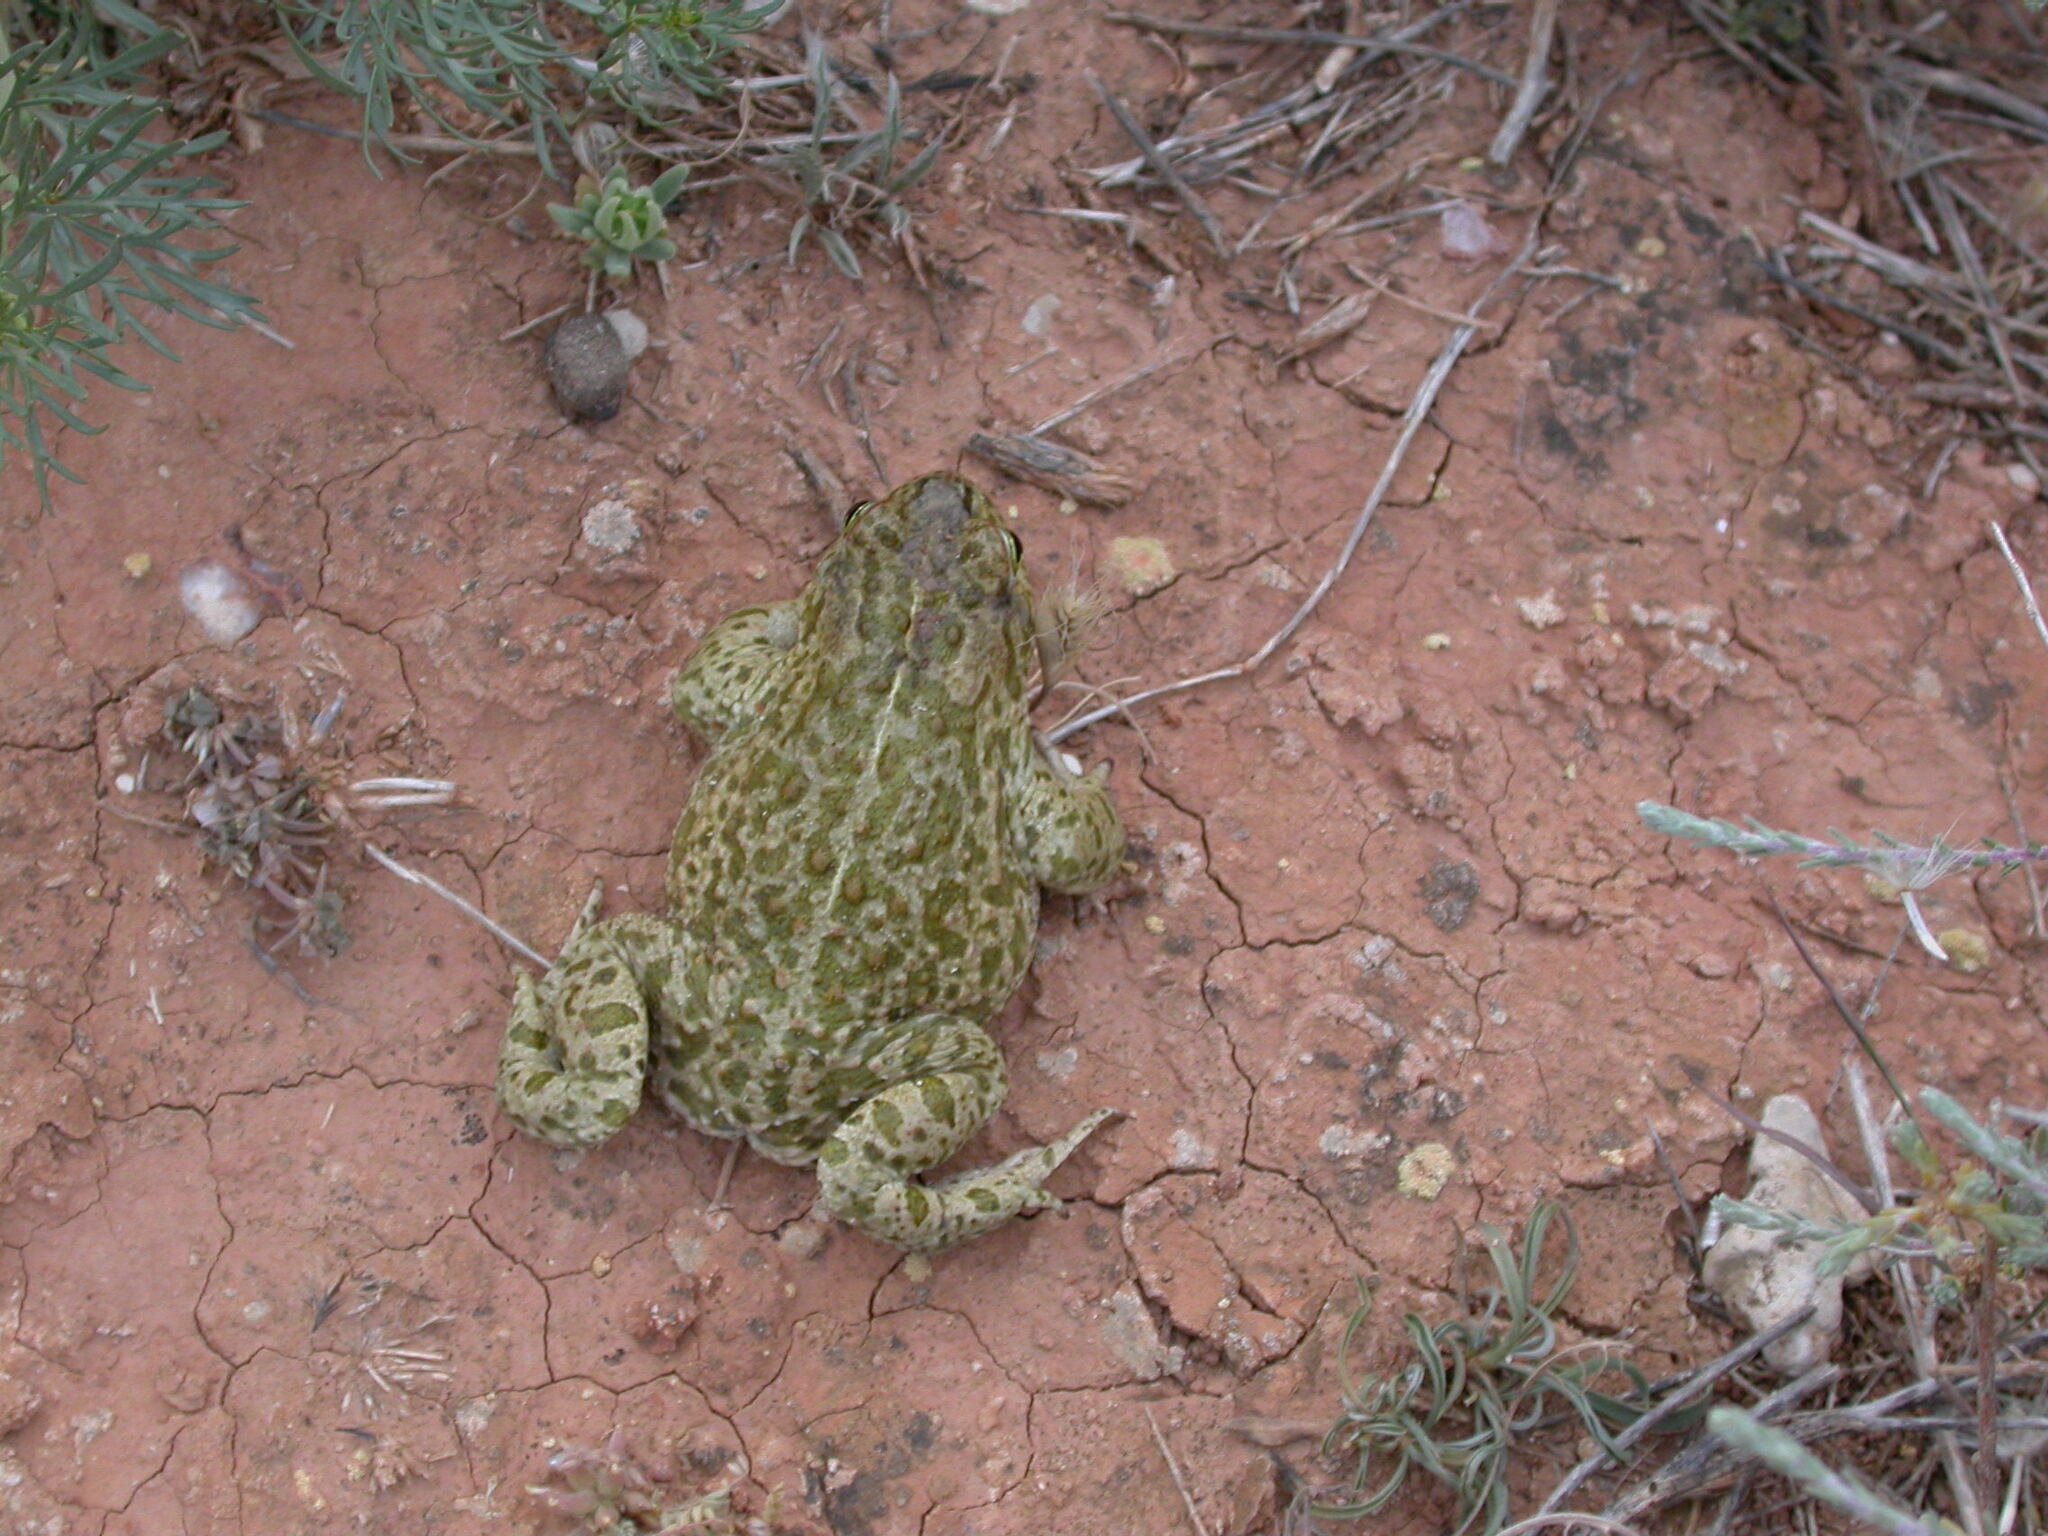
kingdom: Animalia
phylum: Chordata
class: Amphibia
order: Anura
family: Bufonidae
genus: Epidalea
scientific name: Epidalea calamita
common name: Natterjack toad
